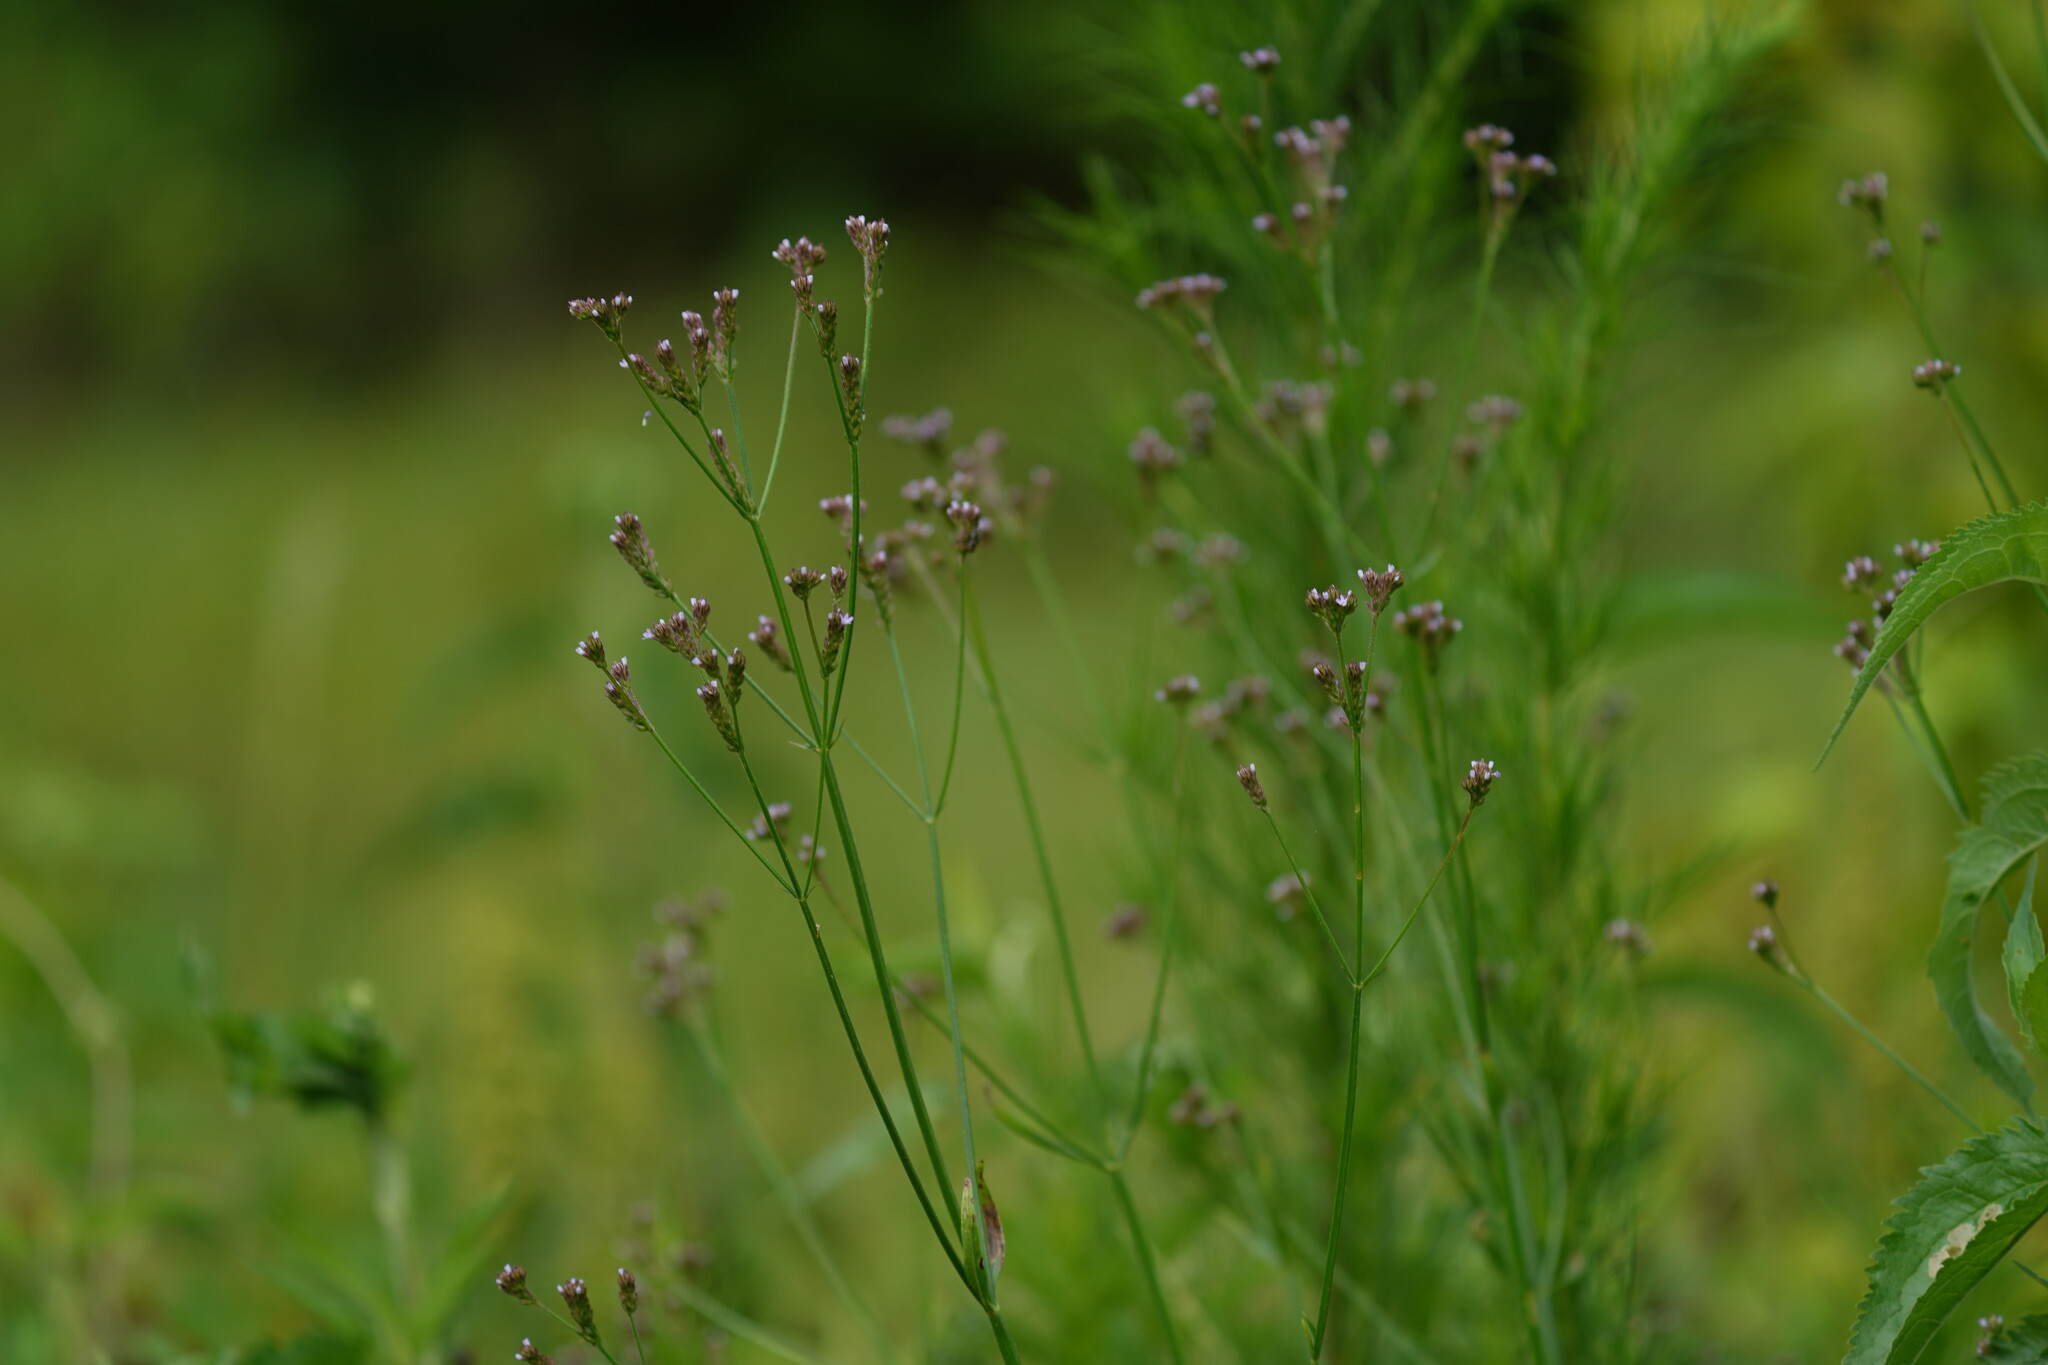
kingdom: Plantae
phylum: Tracheophyta
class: Magnoliopsida
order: Lamiales
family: Verbenaceae
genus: Verbena
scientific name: Verbena brasiliensis
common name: Brazilian vervain
